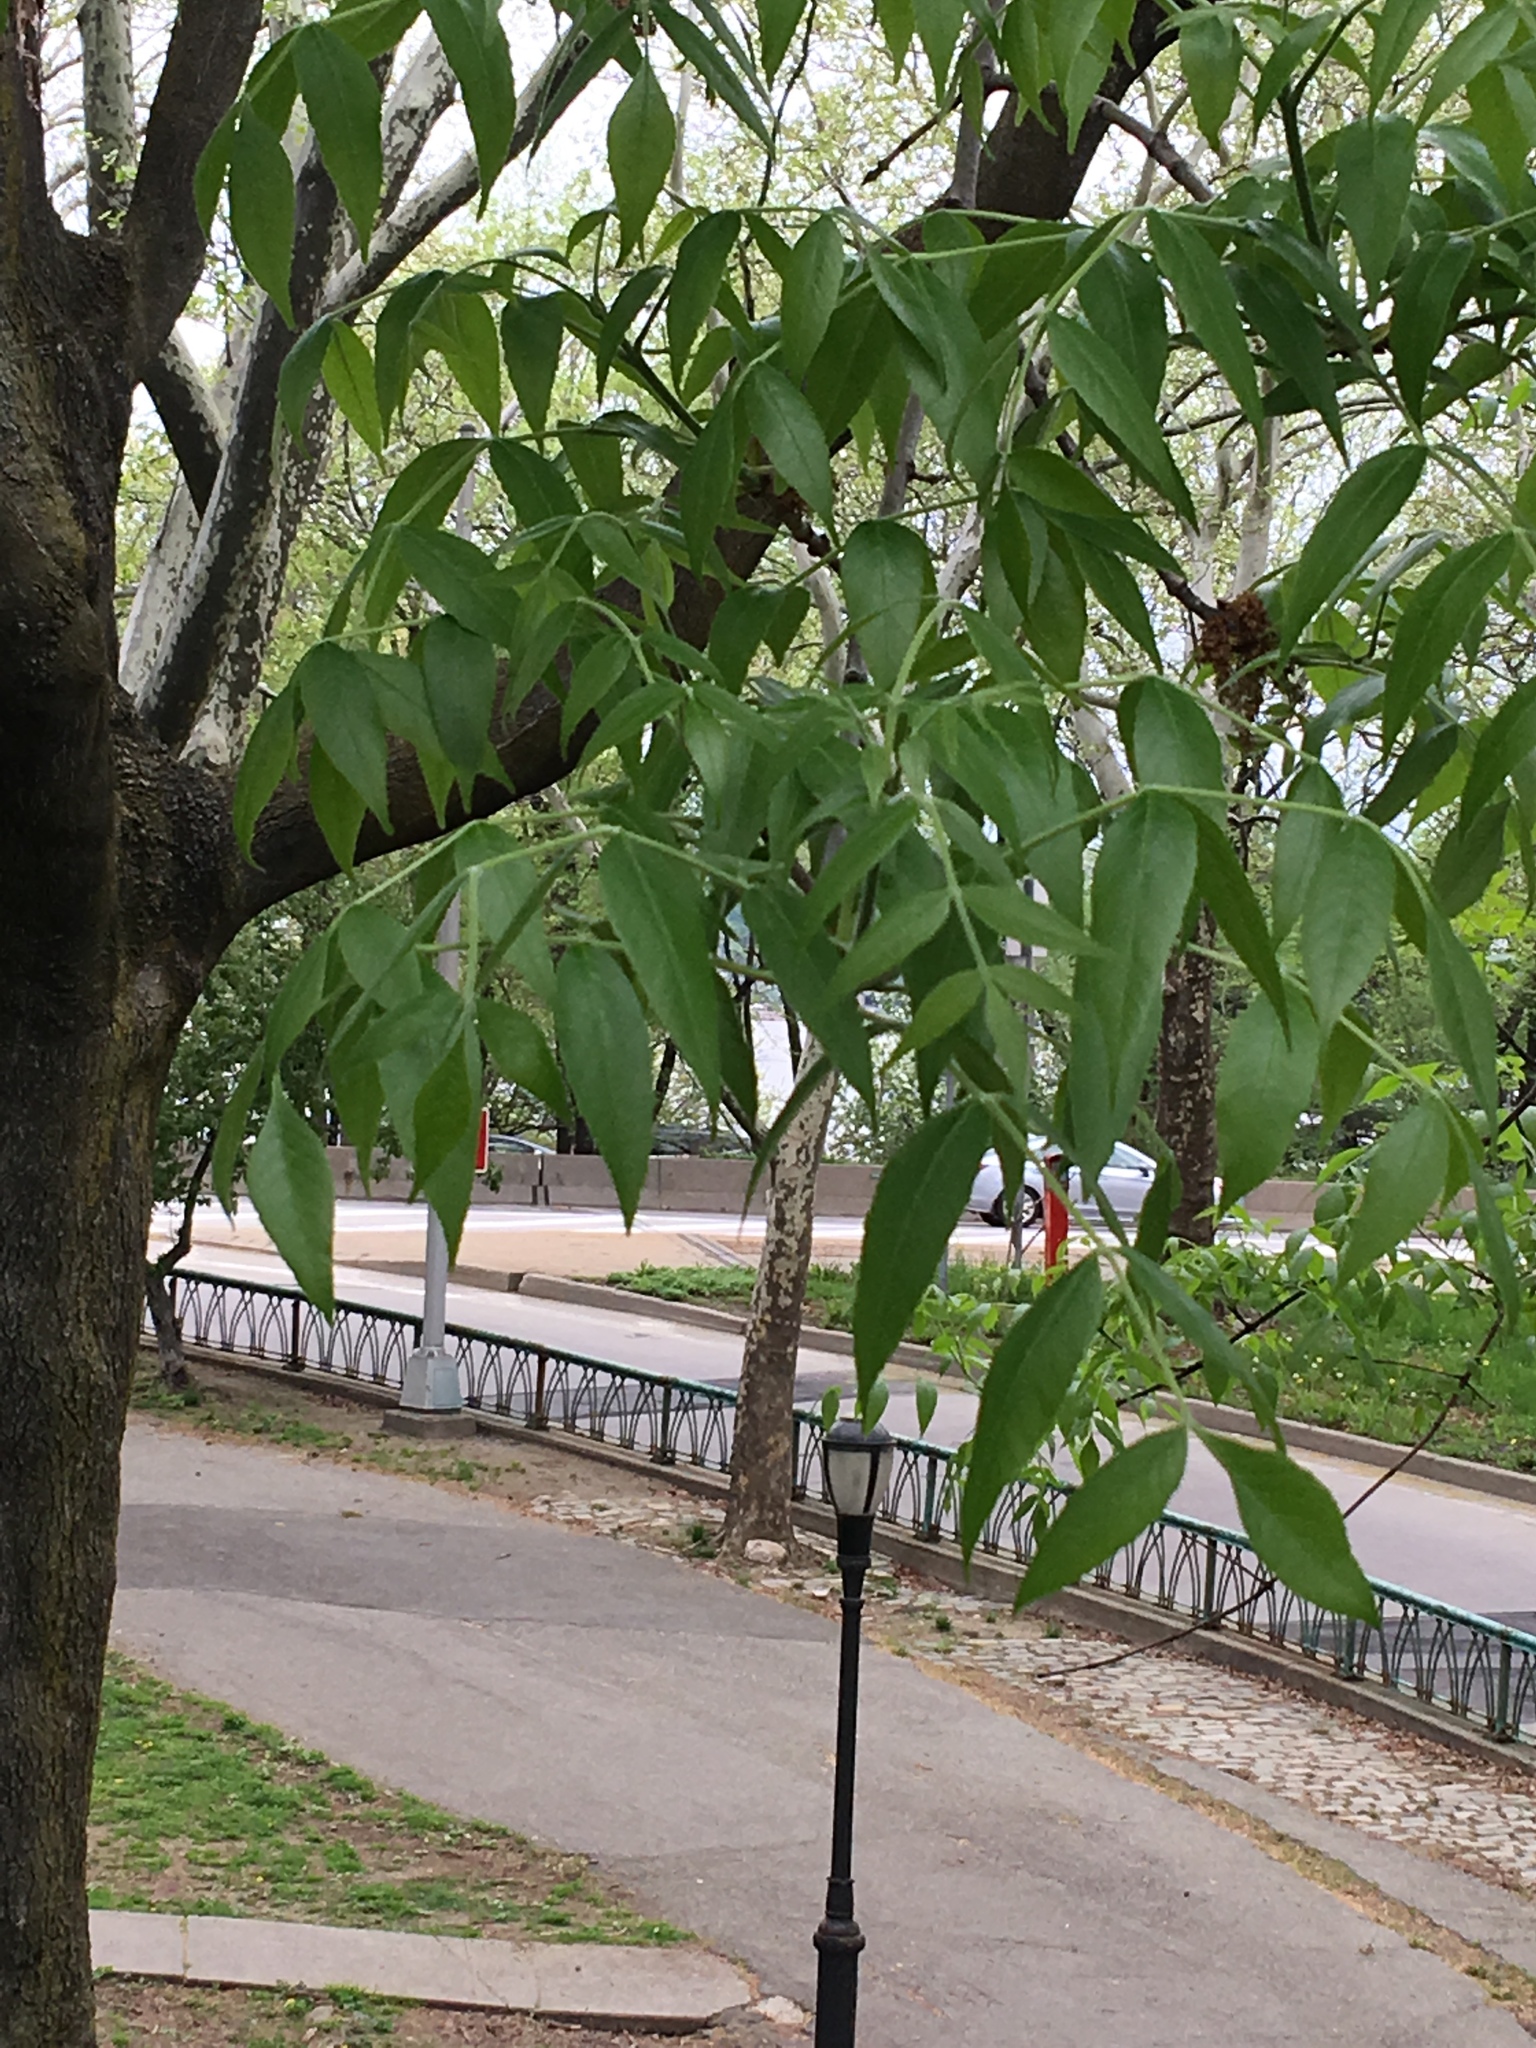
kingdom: Plantae
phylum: Tracheophyta
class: Magnoliopsida
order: Lamiales
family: Oleaceae
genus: Fraxinus
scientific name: Fraxinus pennsylvanica
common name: Green ash
